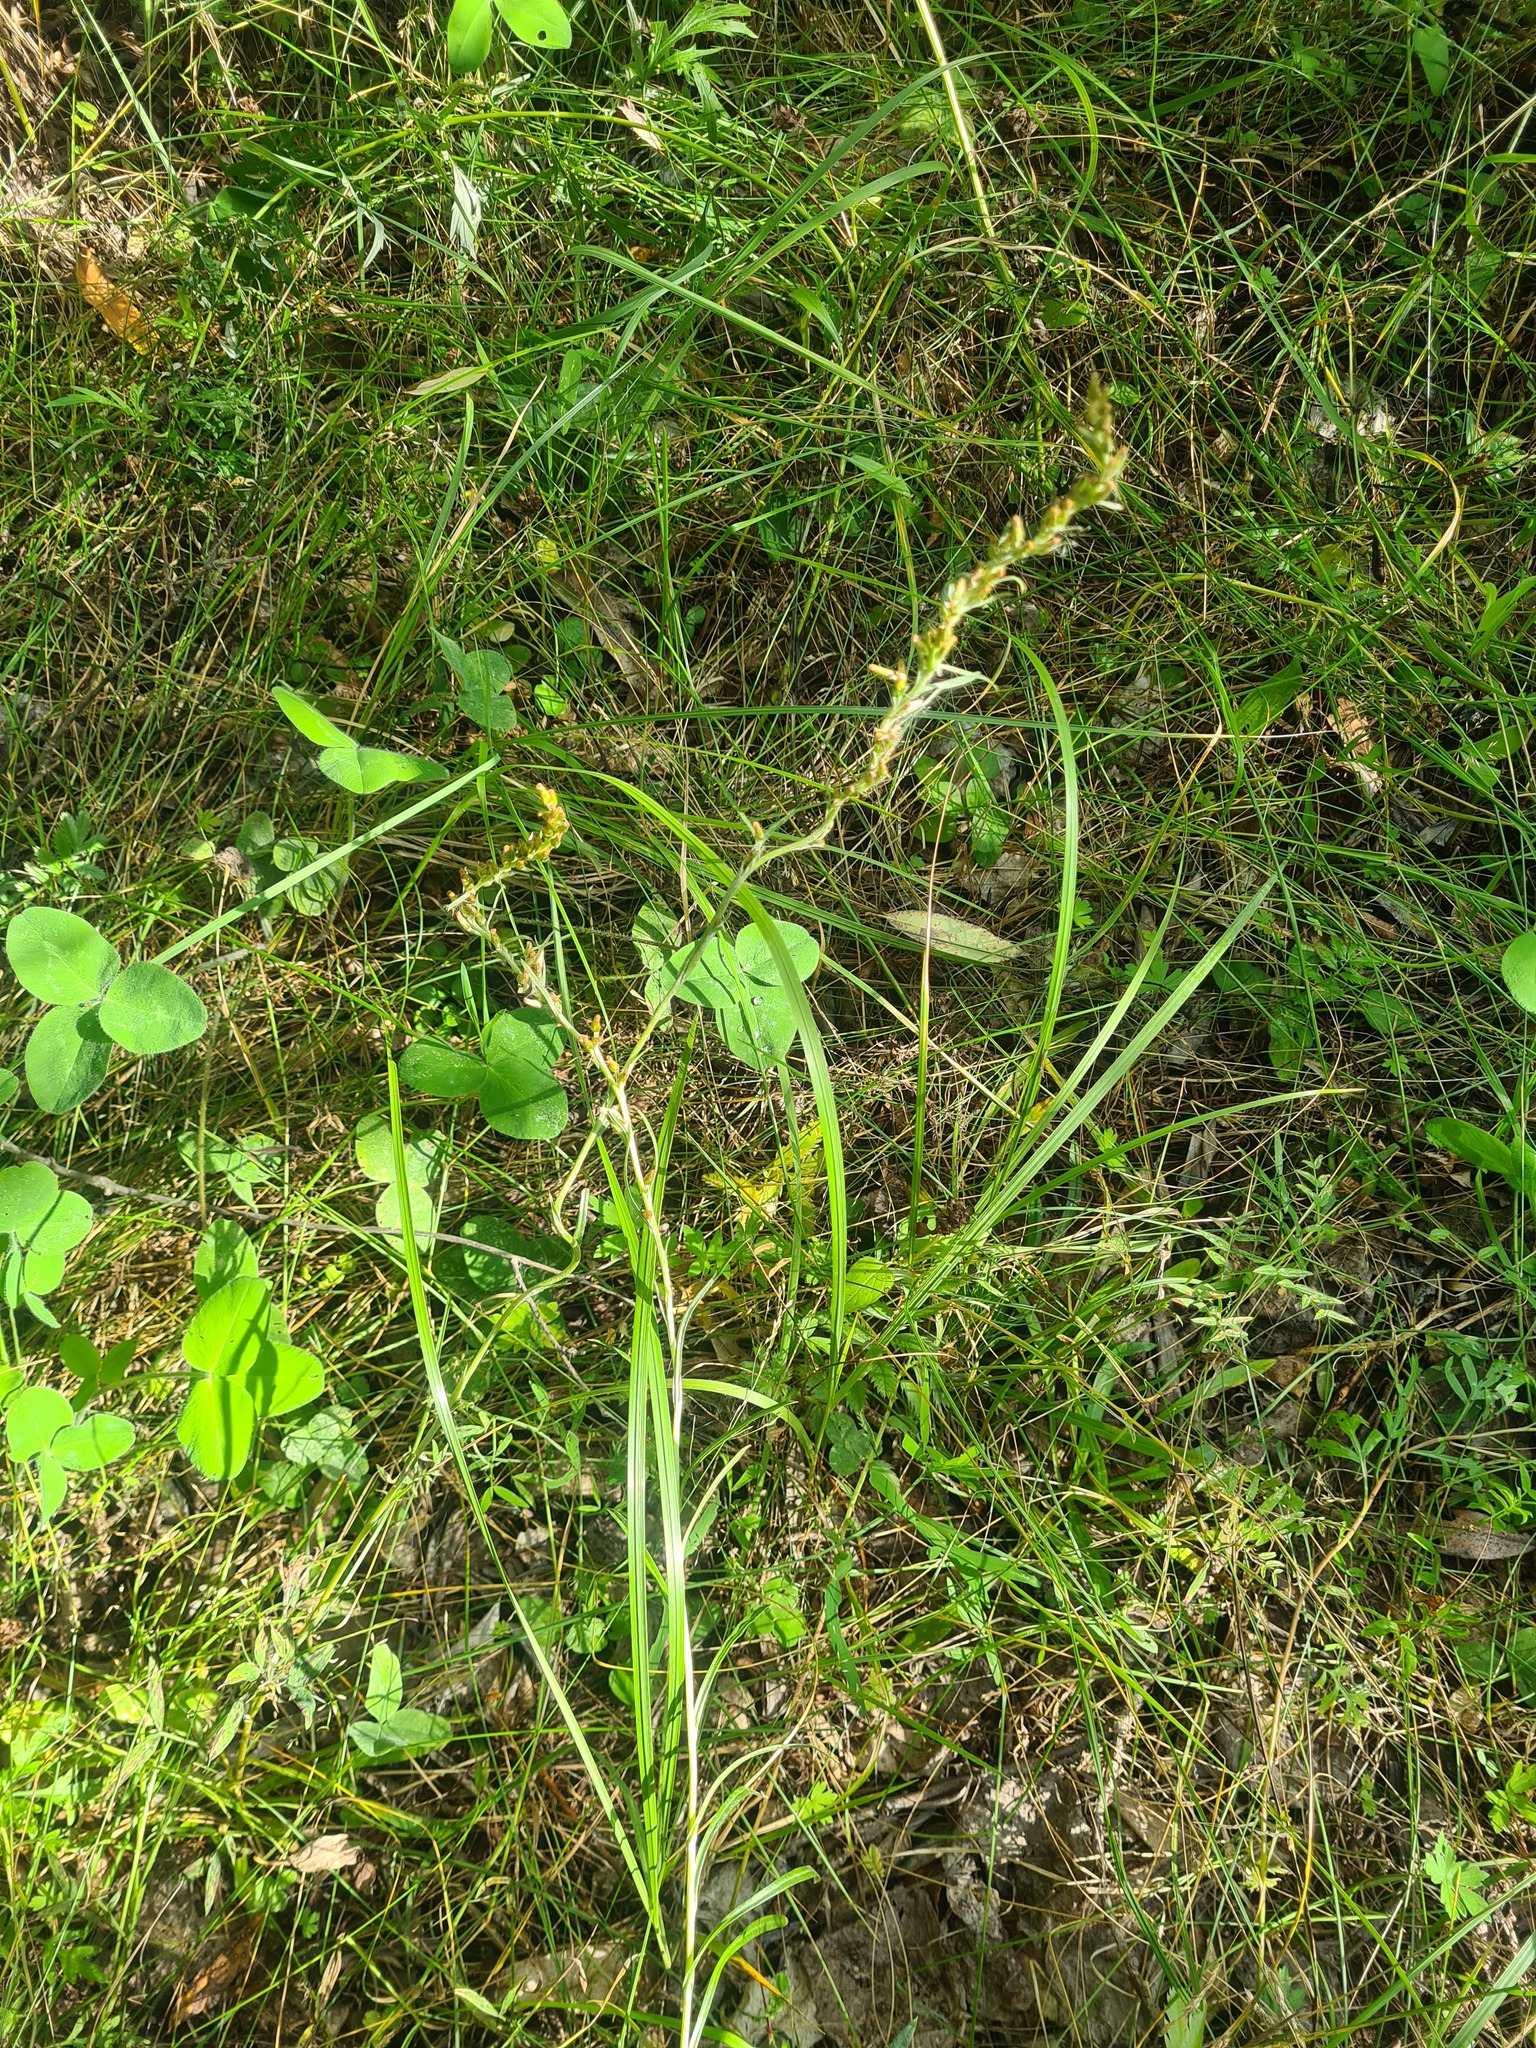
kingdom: Plantae
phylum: Tracheophyta
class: Magnoliopsida
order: Asterales
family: Asteraceae
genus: Omalotheca
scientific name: Omalotheca sylvatica
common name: Heath cudweed
